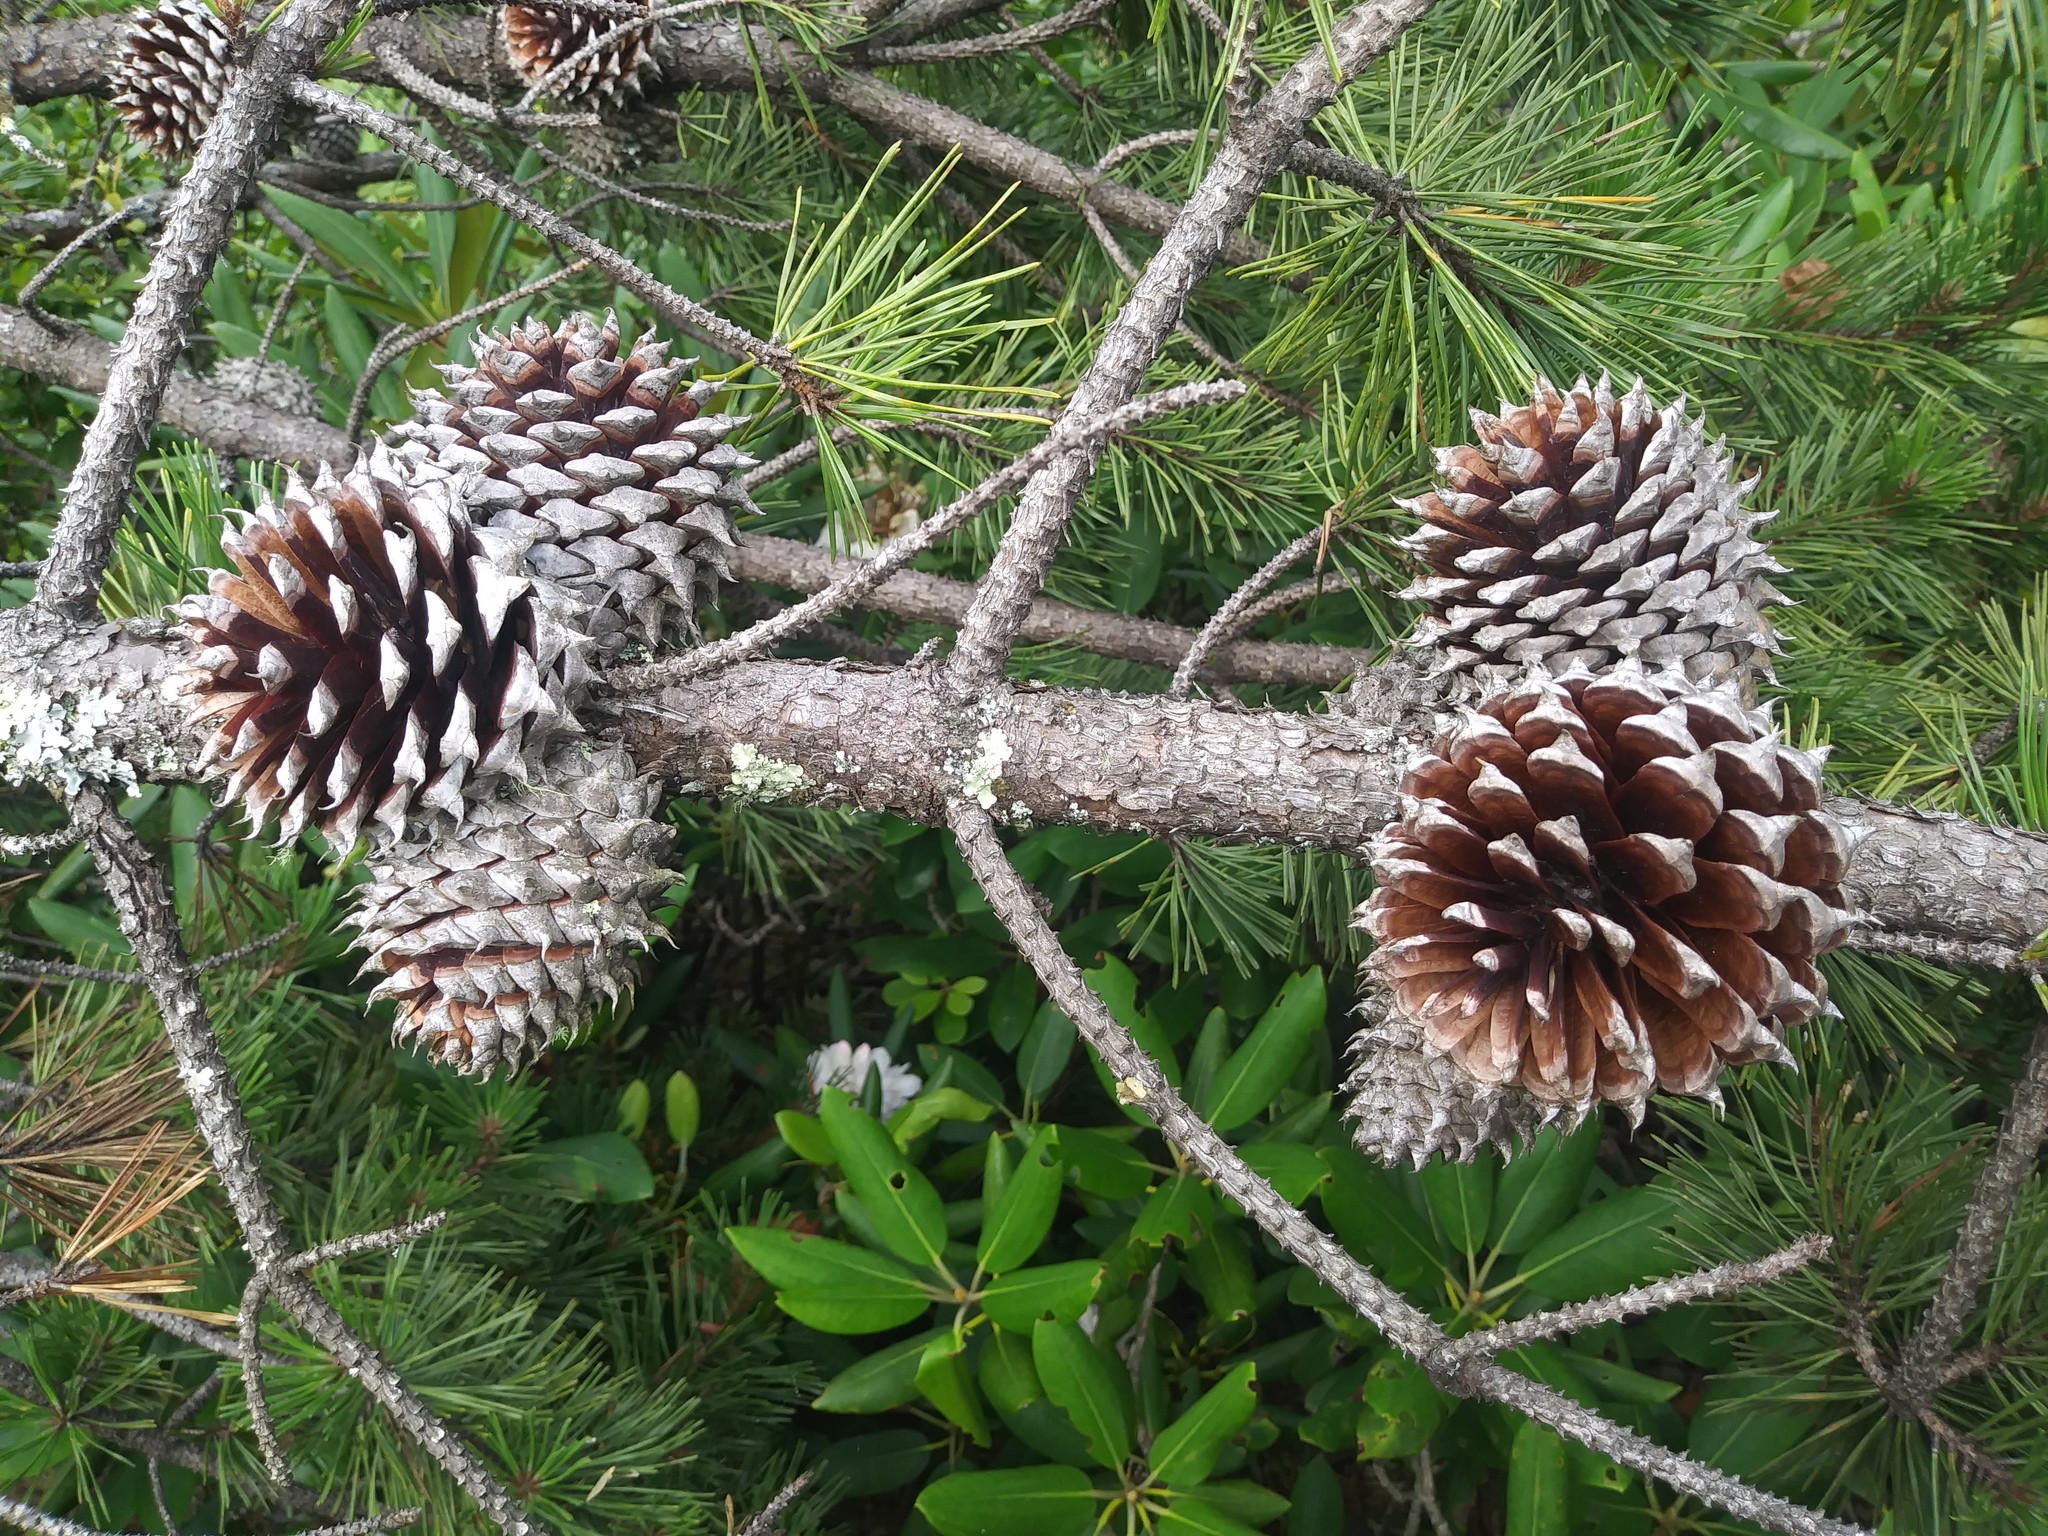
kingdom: Plantae
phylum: Tracheophyta
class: Pinopsida
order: Pinales
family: Pinaceae
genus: Pinus
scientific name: Pinus pungens
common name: Hickory pine
